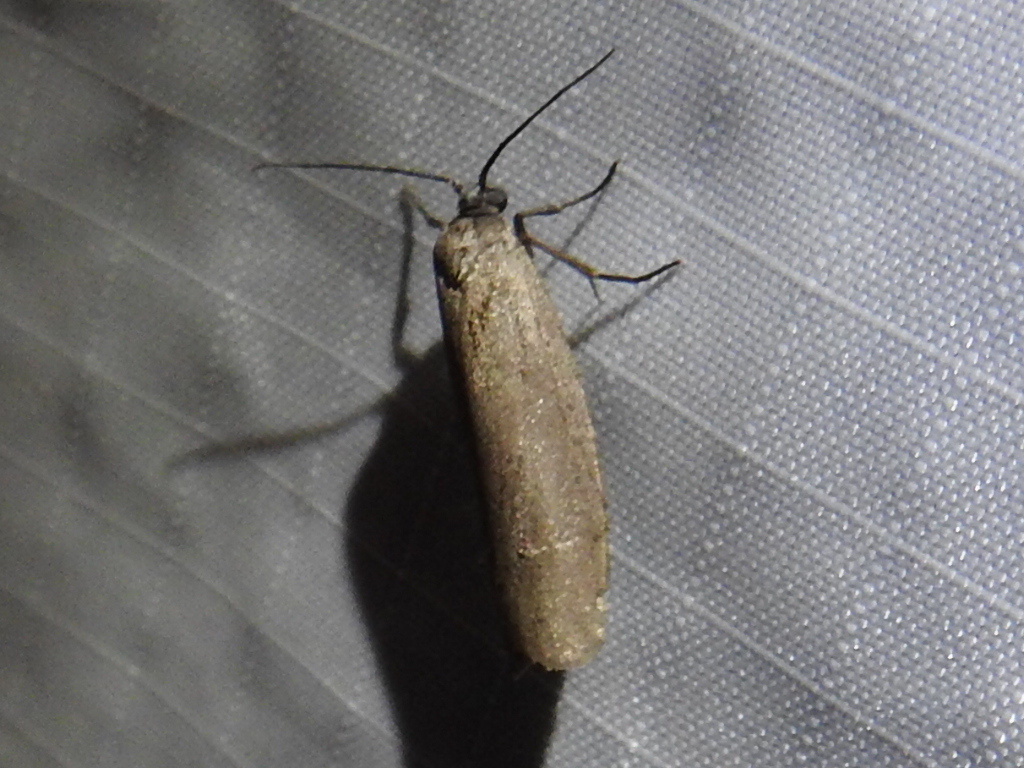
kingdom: Animalia
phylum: Arthropoda
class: Insecta
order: Lepidoptera
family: Urodidae
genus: Urodus
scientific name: Urodus parvula
